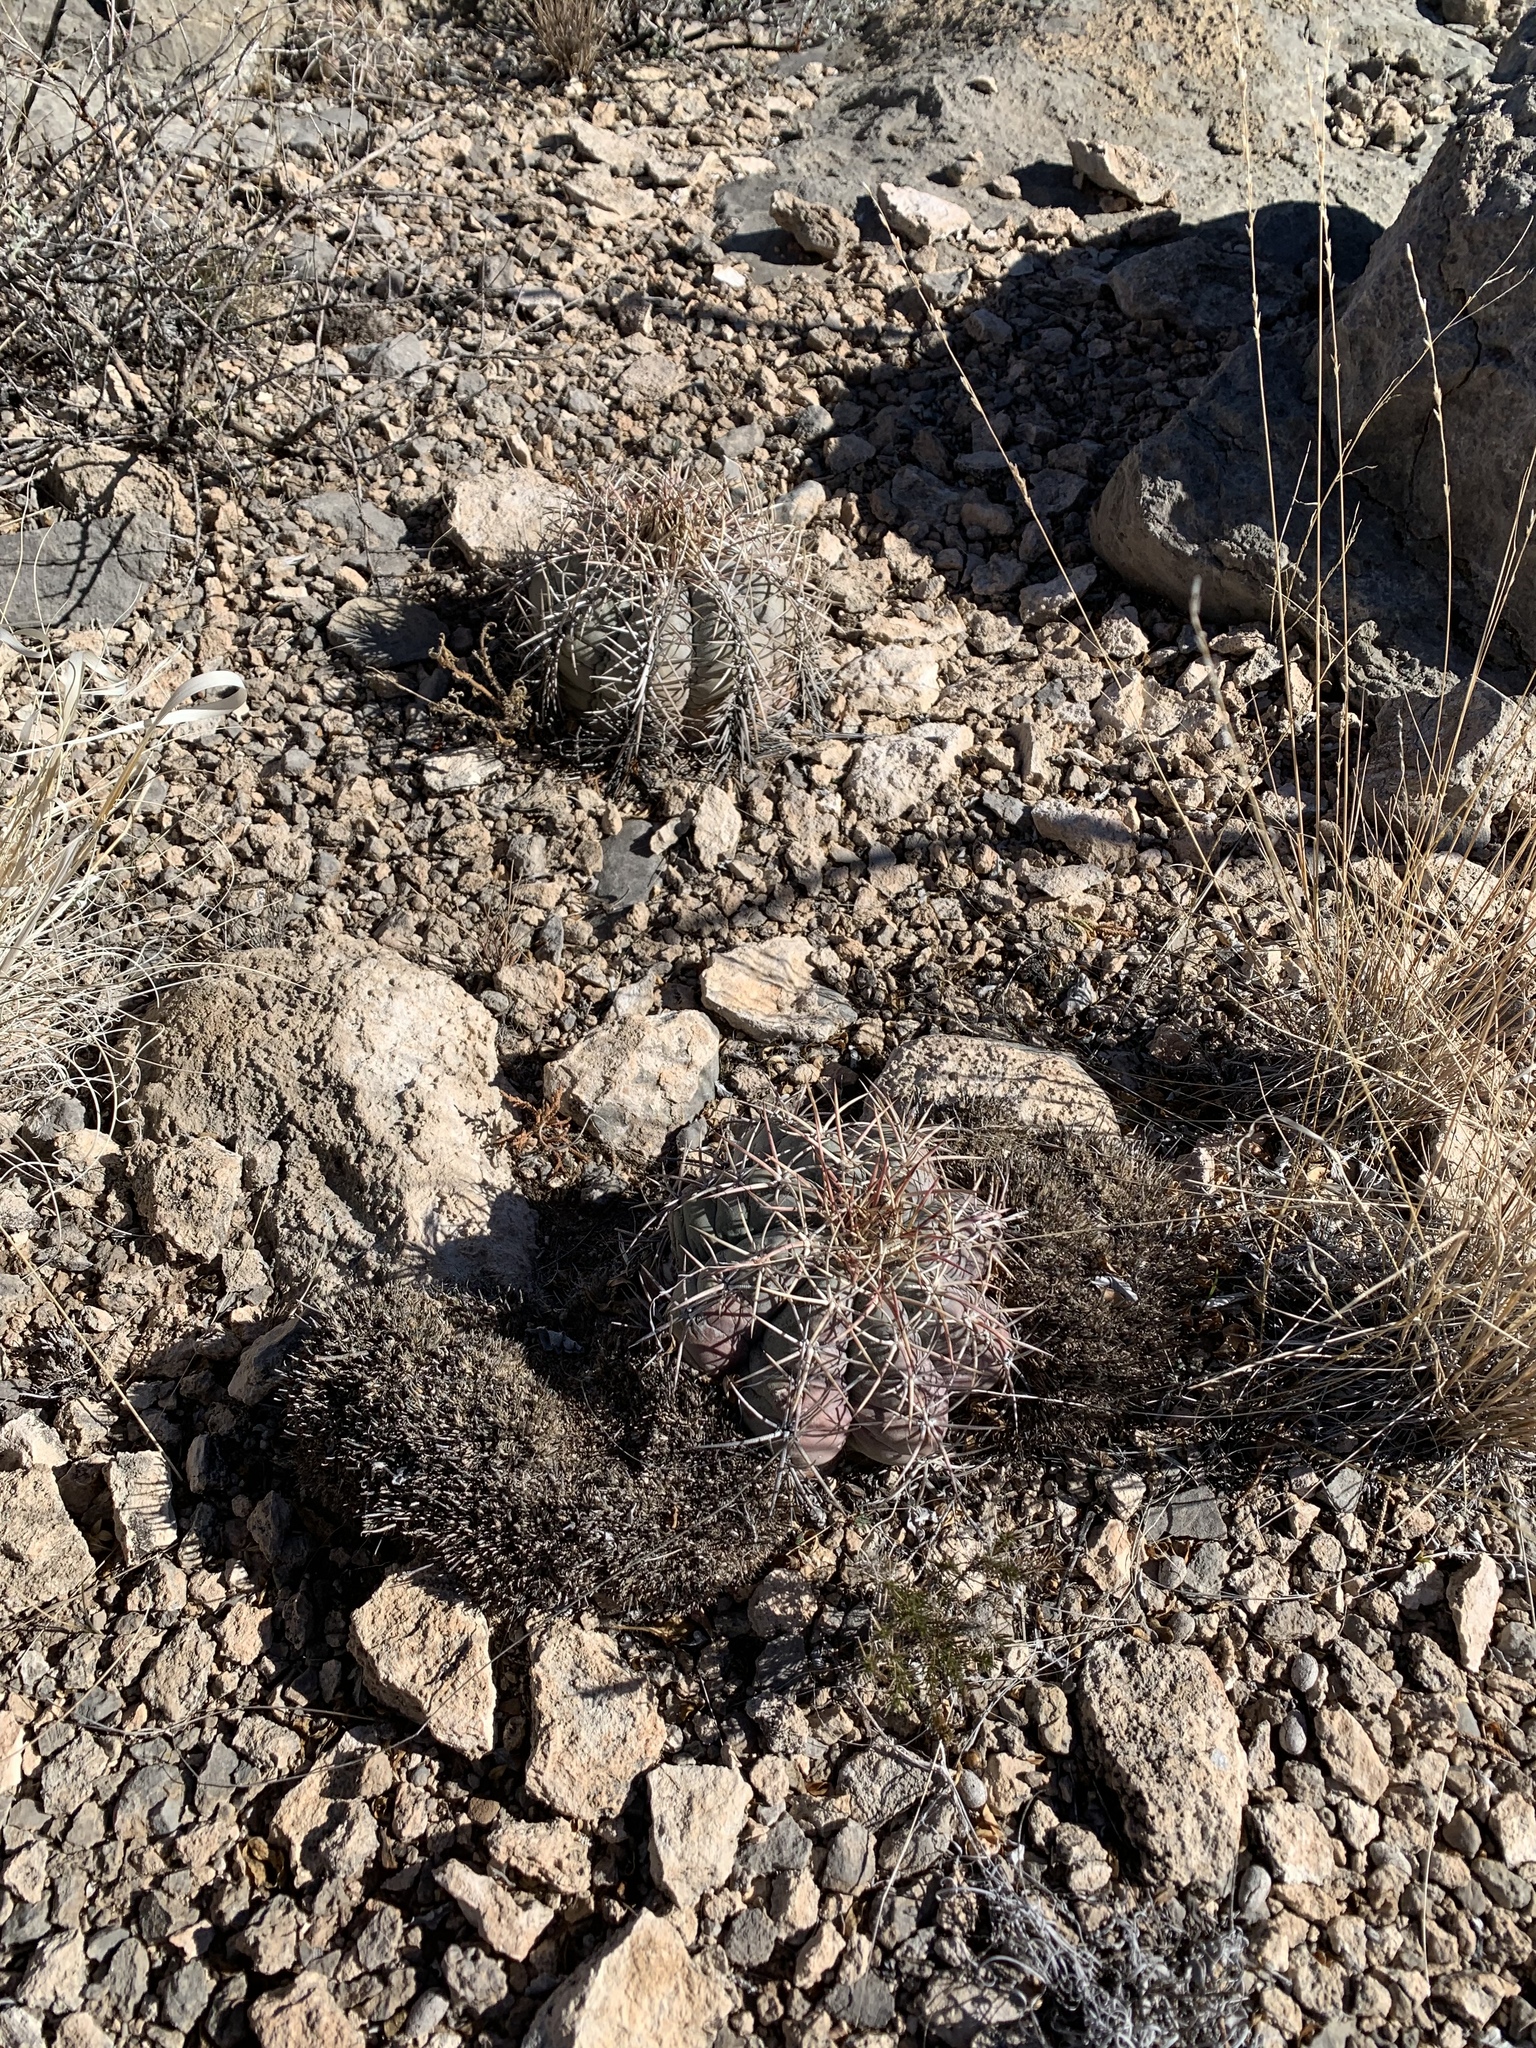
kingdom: Plantae
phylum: Tracheophyta
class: Magnoliopsida
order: Caryophyllales
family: Cactaceae
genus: Echinocactus
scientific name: Echinocactus horizonthalonius
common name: Devilshead
